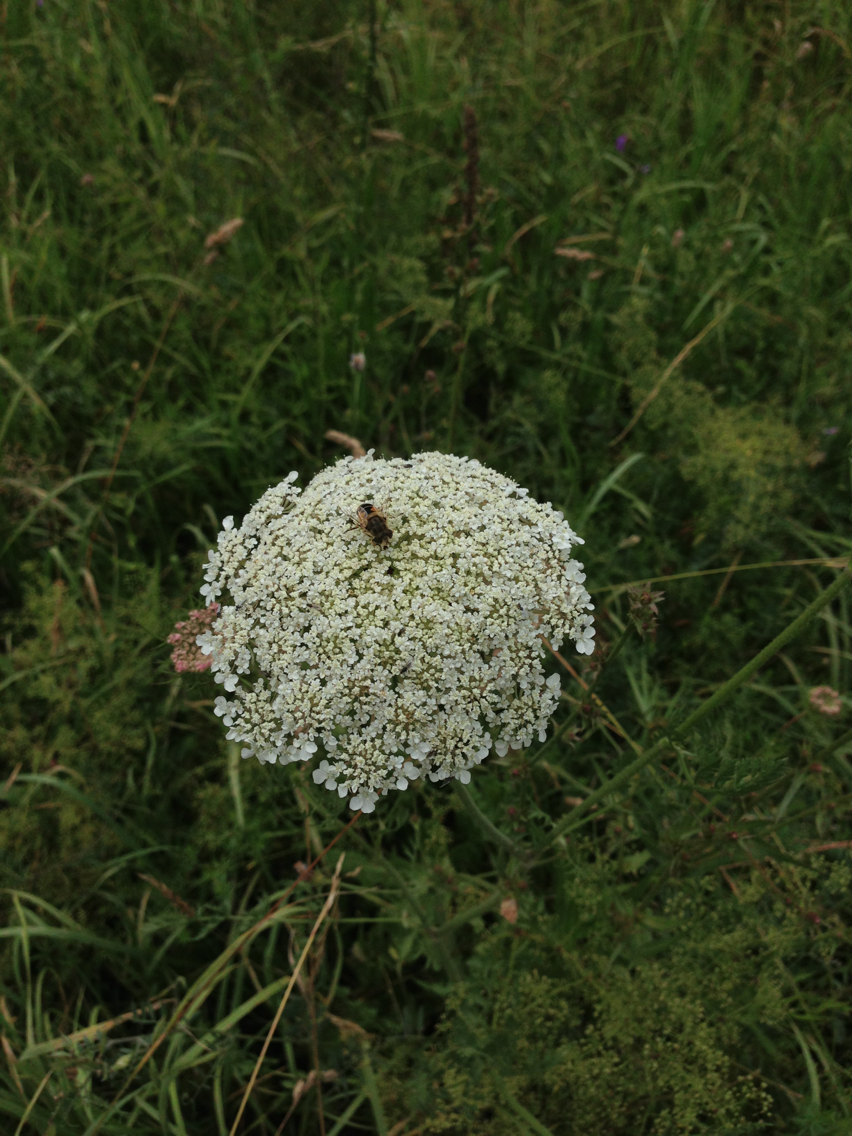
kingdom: Plantae
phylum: Tracheophyta
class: Magnoliopsida
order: Apiales
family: Apiaceae
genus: Daucus
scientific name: Daucus carota
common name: Wild carrot
